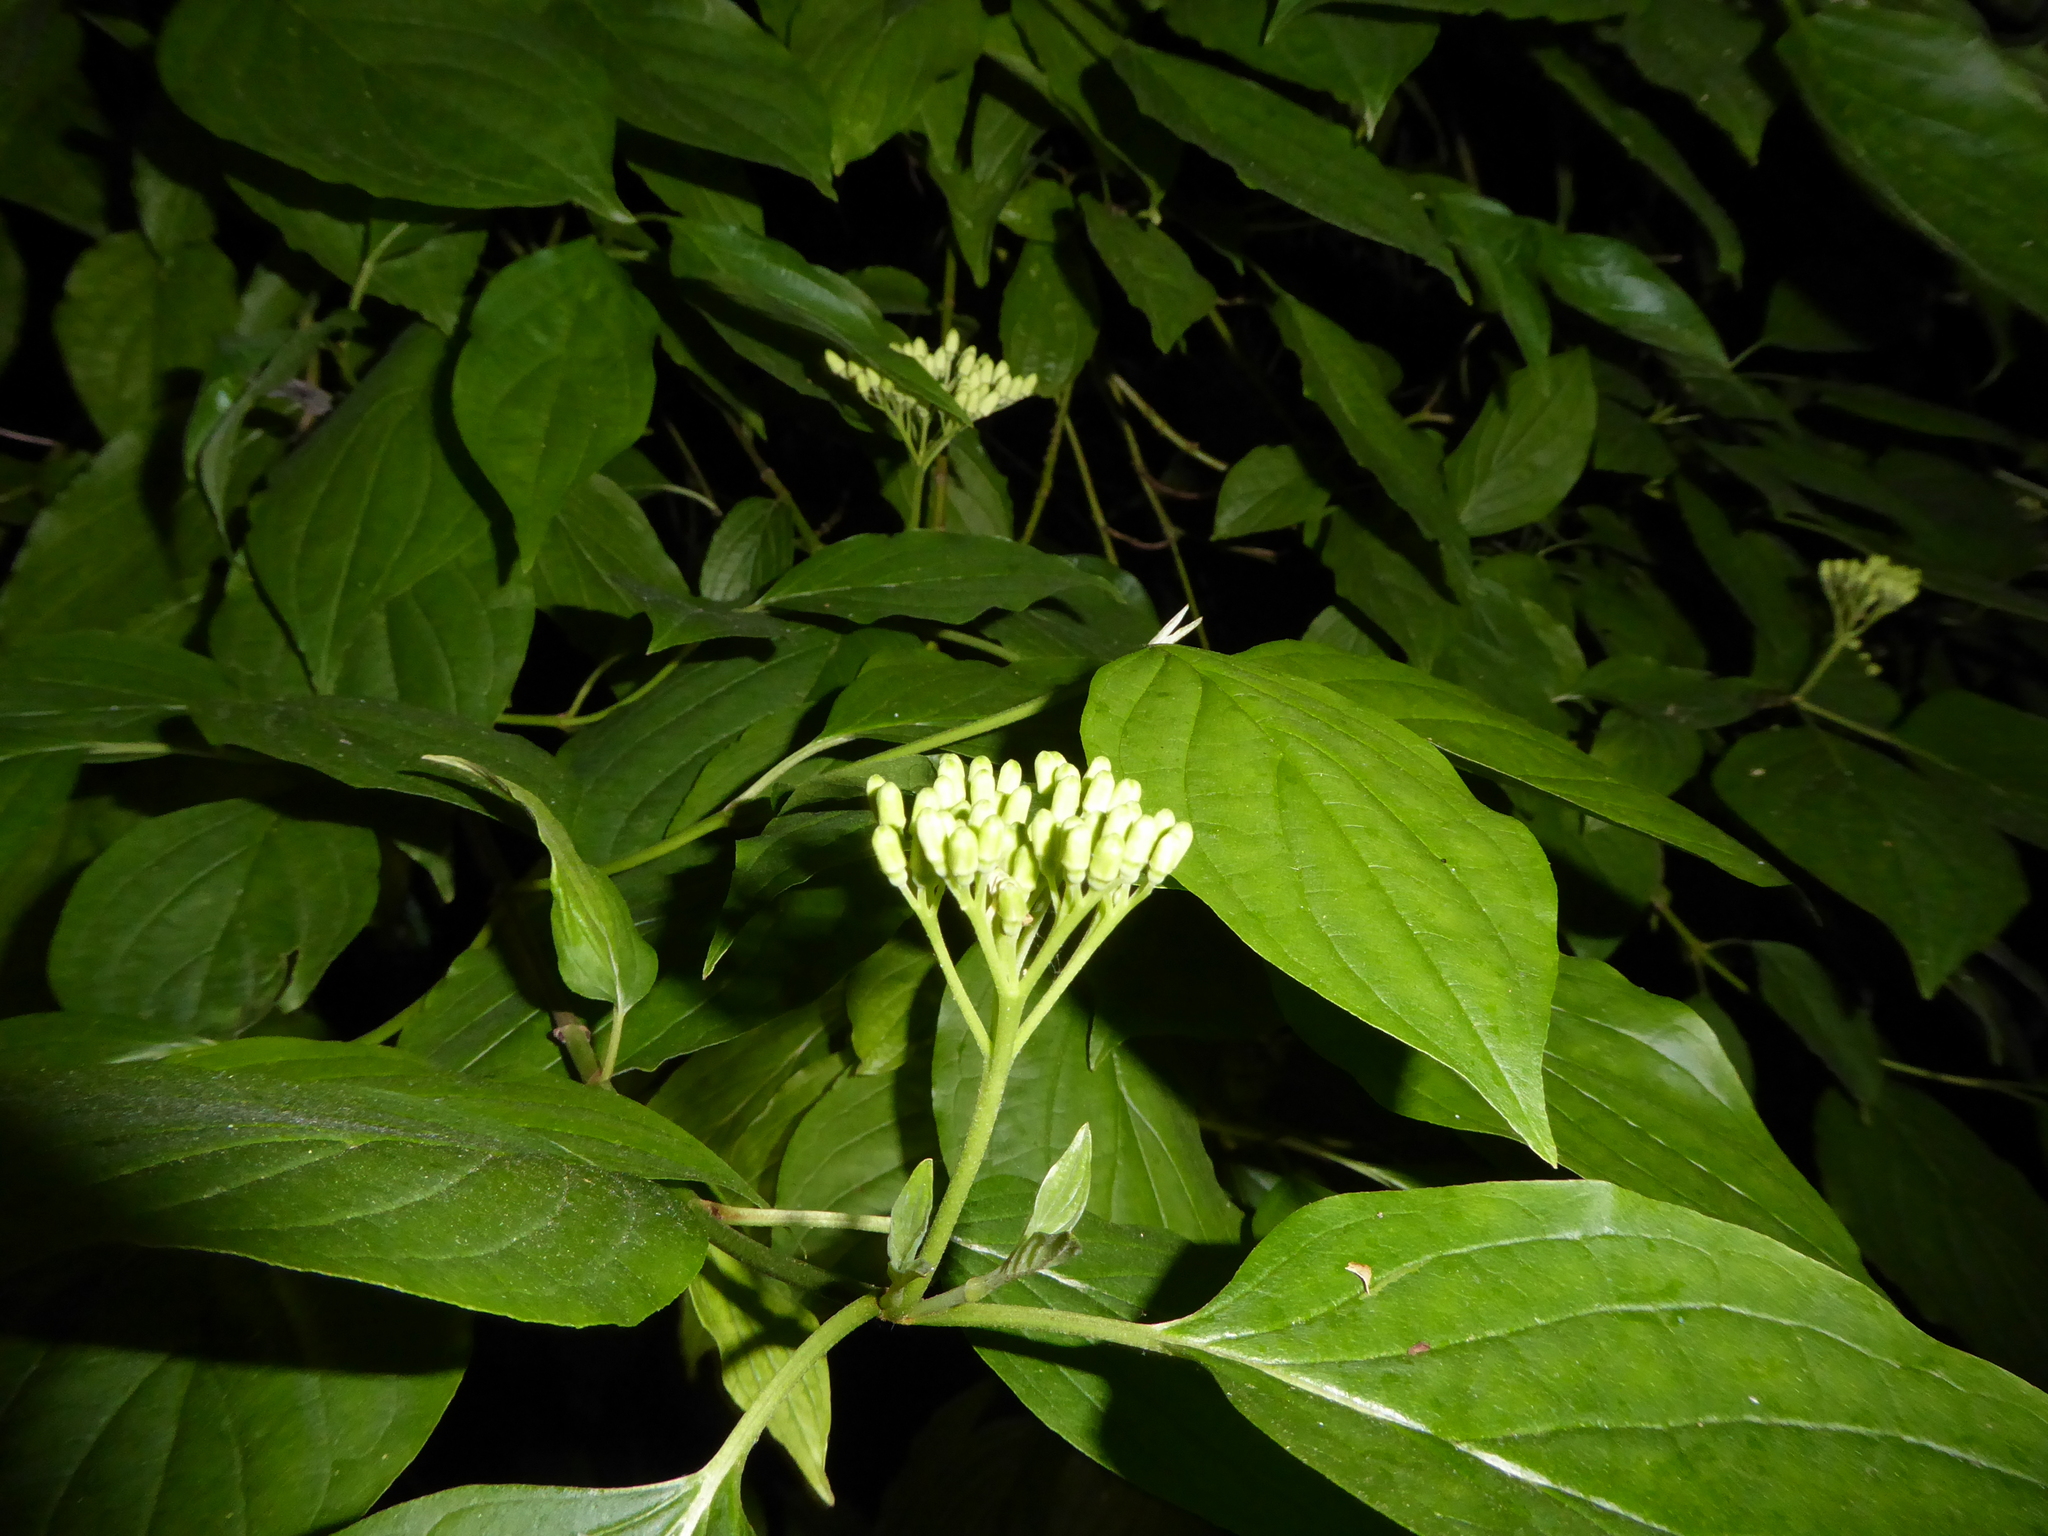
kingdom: Plantae
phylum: Tracheophyta
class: Magnoliopsida
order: Cornales
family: Cornaceae
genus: Cornus
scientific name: Cornus sanguinea
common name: Dogwood
